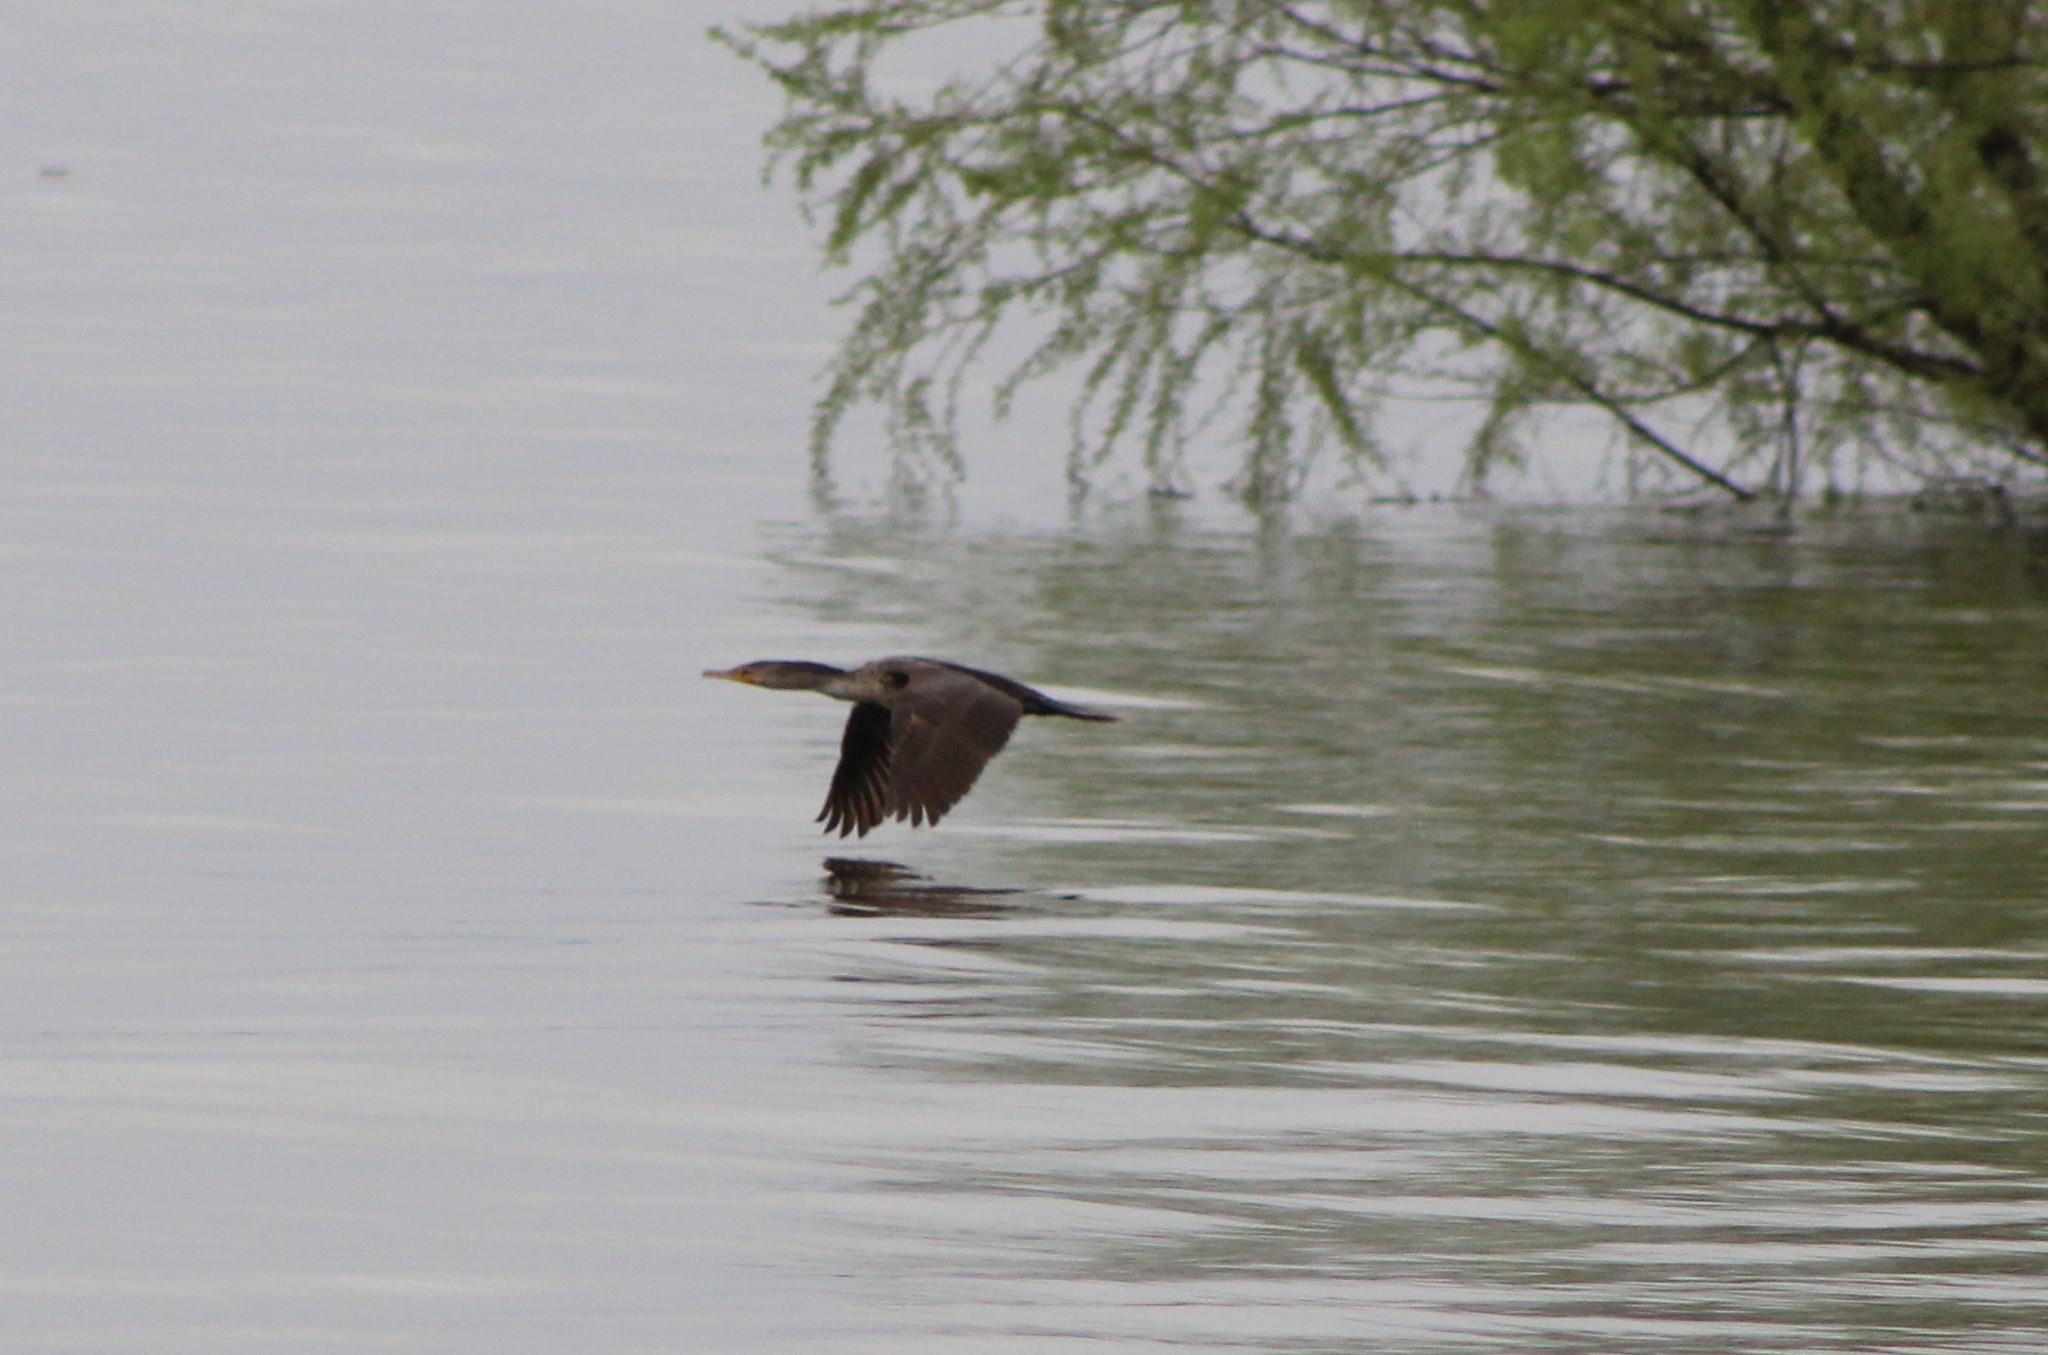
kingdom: Animalia
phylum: Chordata
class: Aves
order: Suliformes
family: Phalacrocoracidae
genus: Phalacrocorax
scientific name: Phalacrocorax auritus
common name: Double-crested cormorant
